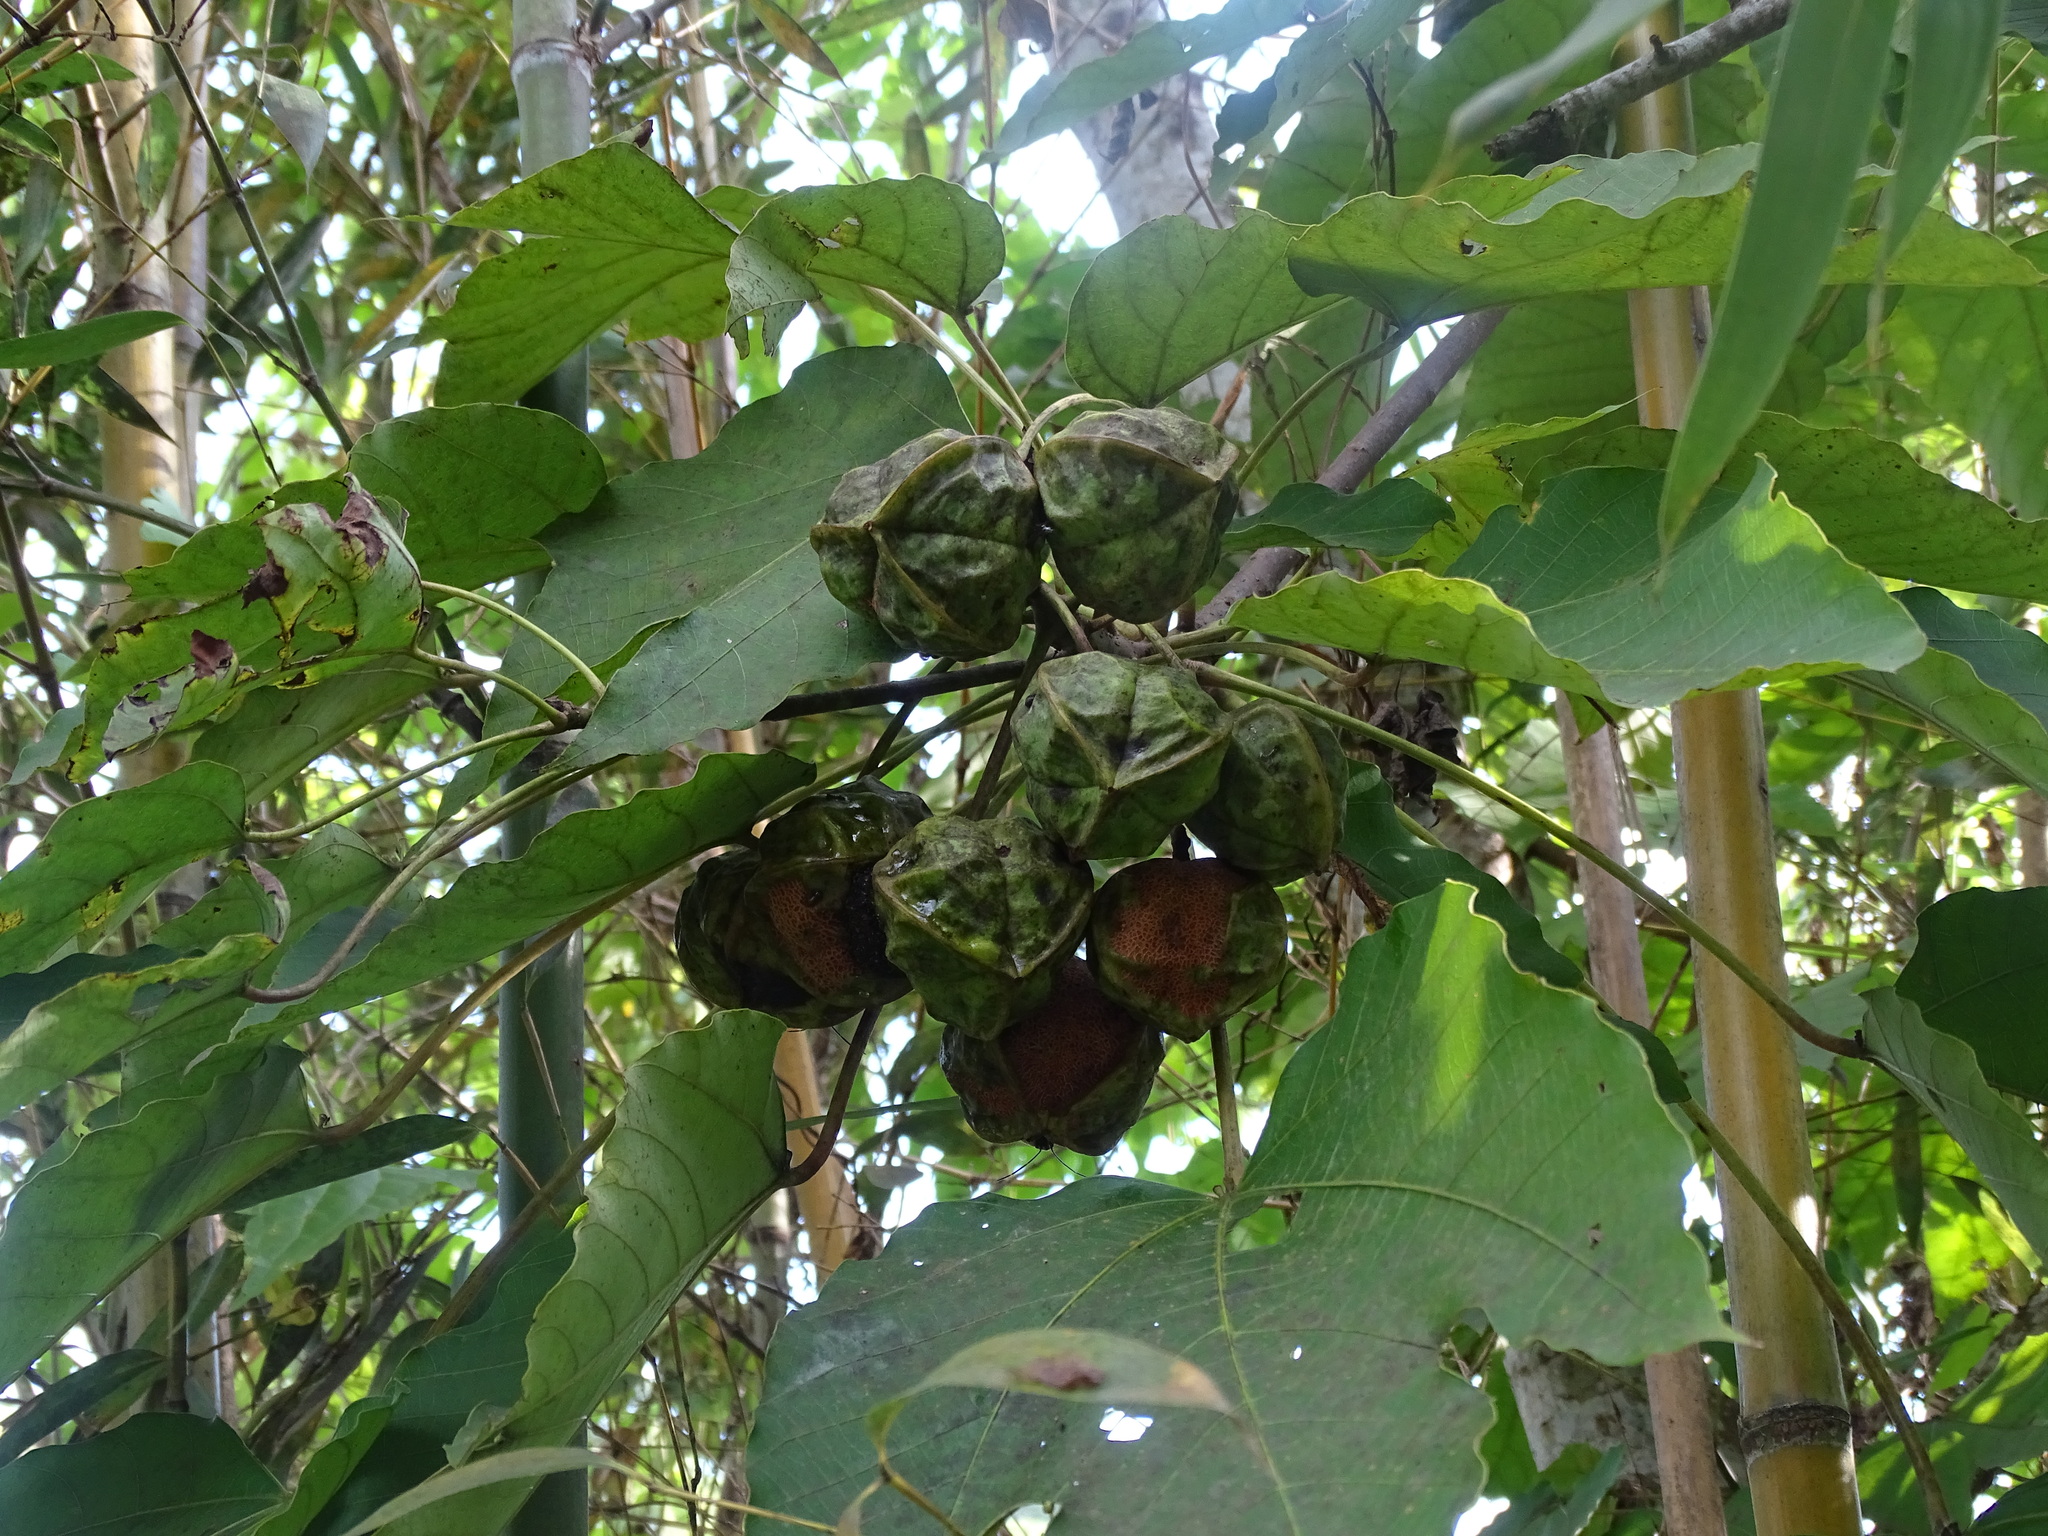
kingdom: Plantae
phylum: Tracheophyta
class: Magnoliopsida
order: Malpighiales
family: Euphorbiaceae
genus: Vernicia
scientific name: Vernicia montana
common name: Mu oil tree
